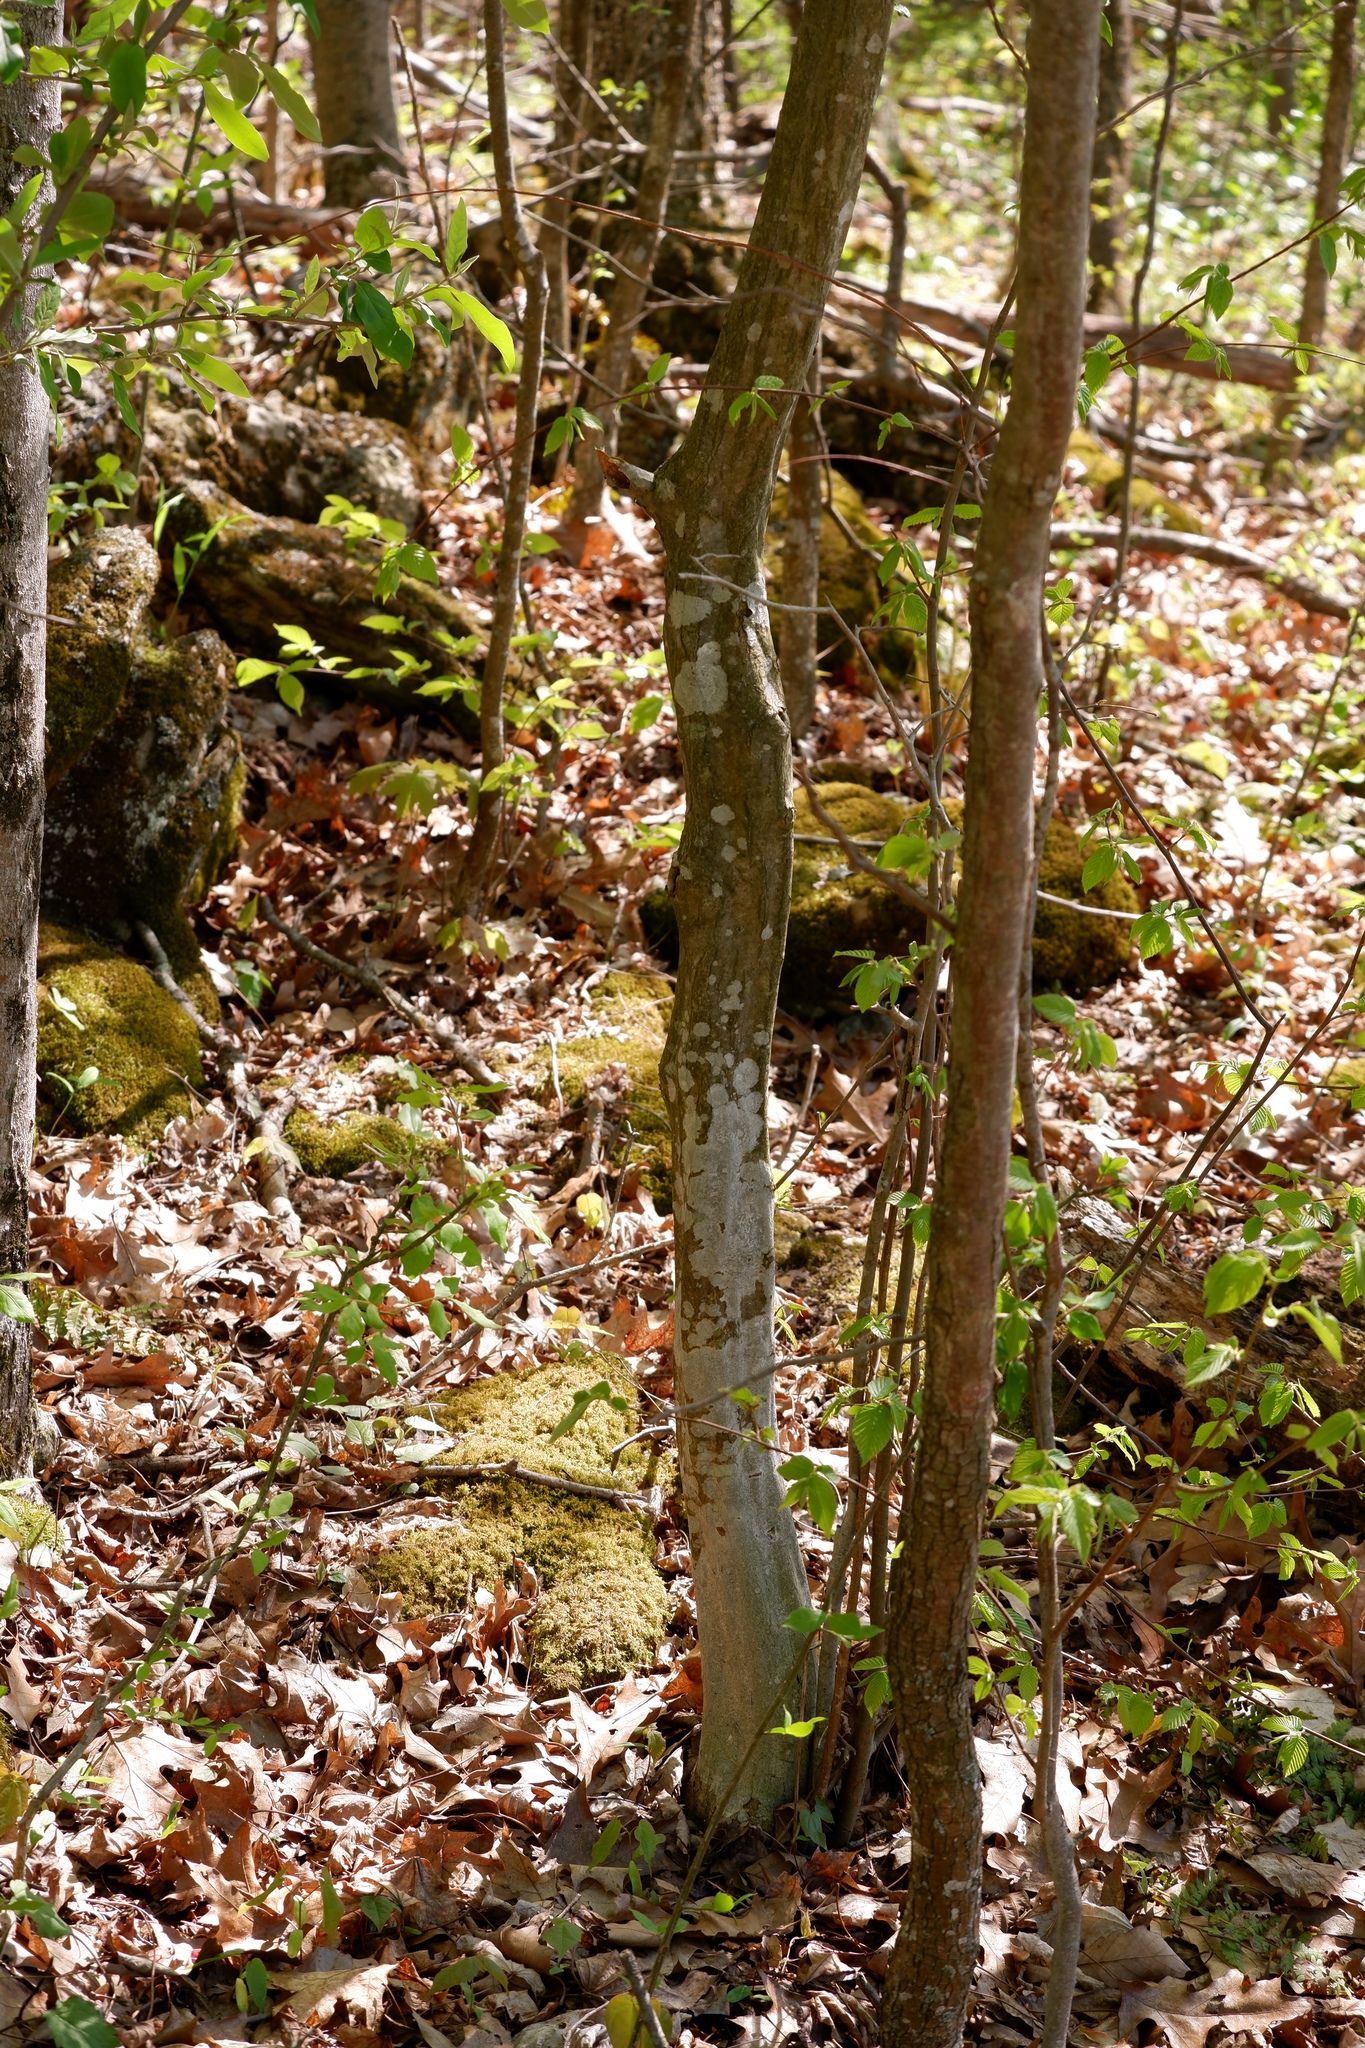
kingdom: Plantae
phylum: Tracheophyta
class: Magnoliopsida
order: Fagales
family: Betulaceae
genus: Carpinus
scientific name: Carpinus caroliniana
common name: American hornbeam
